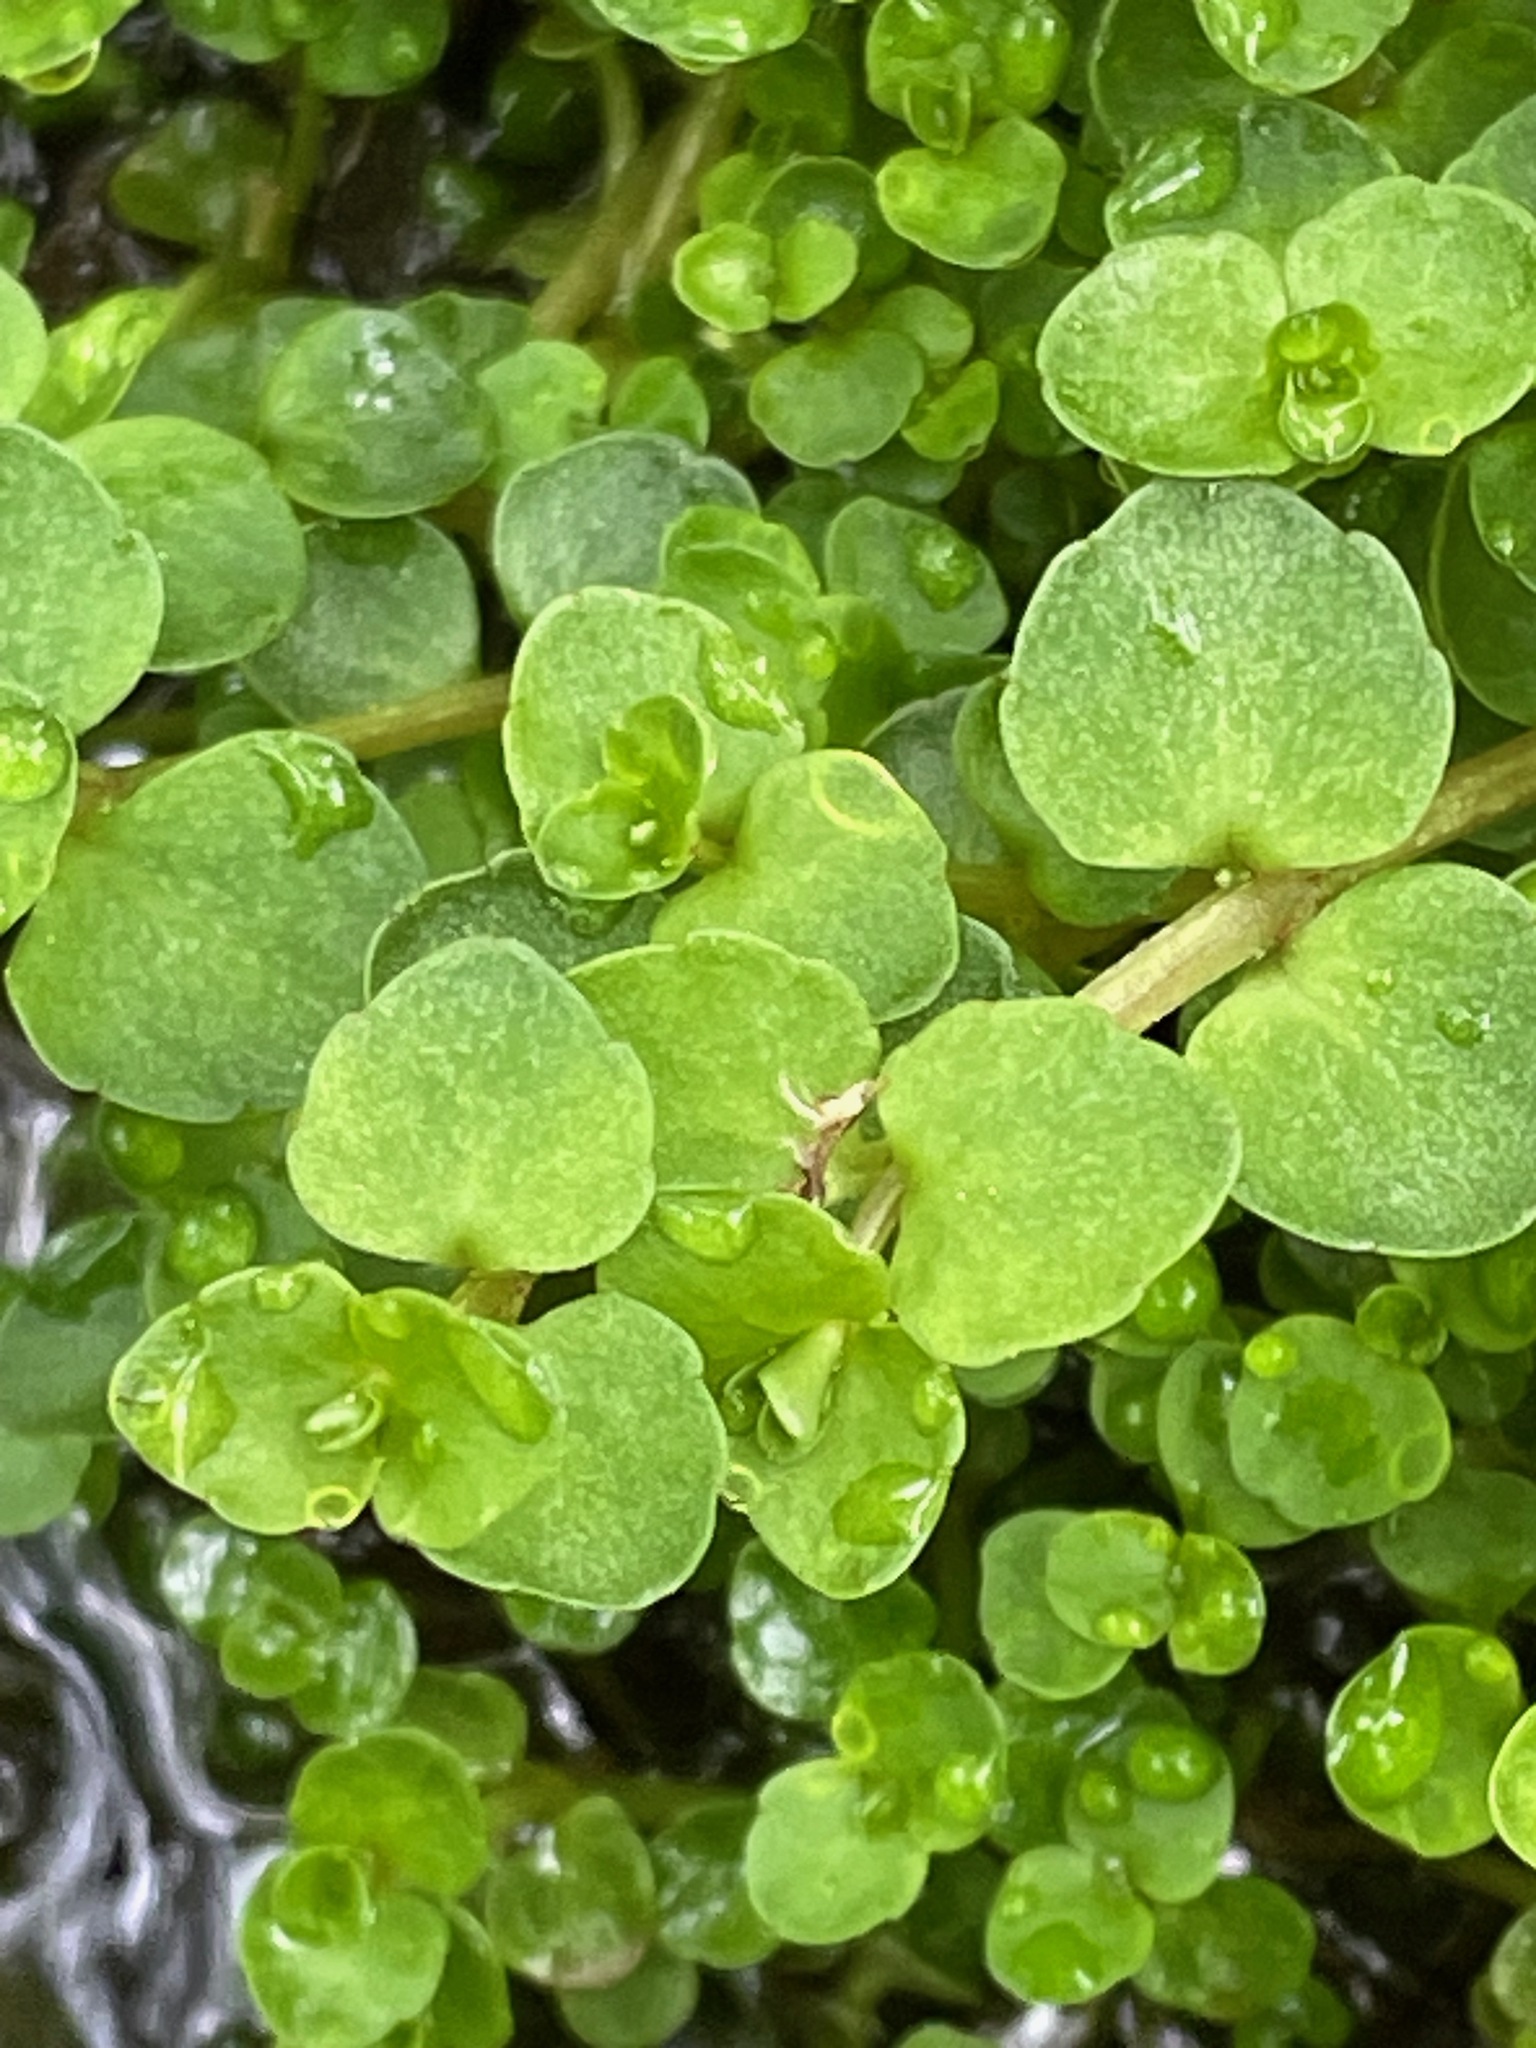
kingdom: Plantae
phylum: Tracheophyta
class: Magnoliopsida
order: Saxifragales
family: Saxifragaceae
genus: Chrysosplenium
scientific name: Chrysosplenium americanum
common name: American golden-saxifrage
